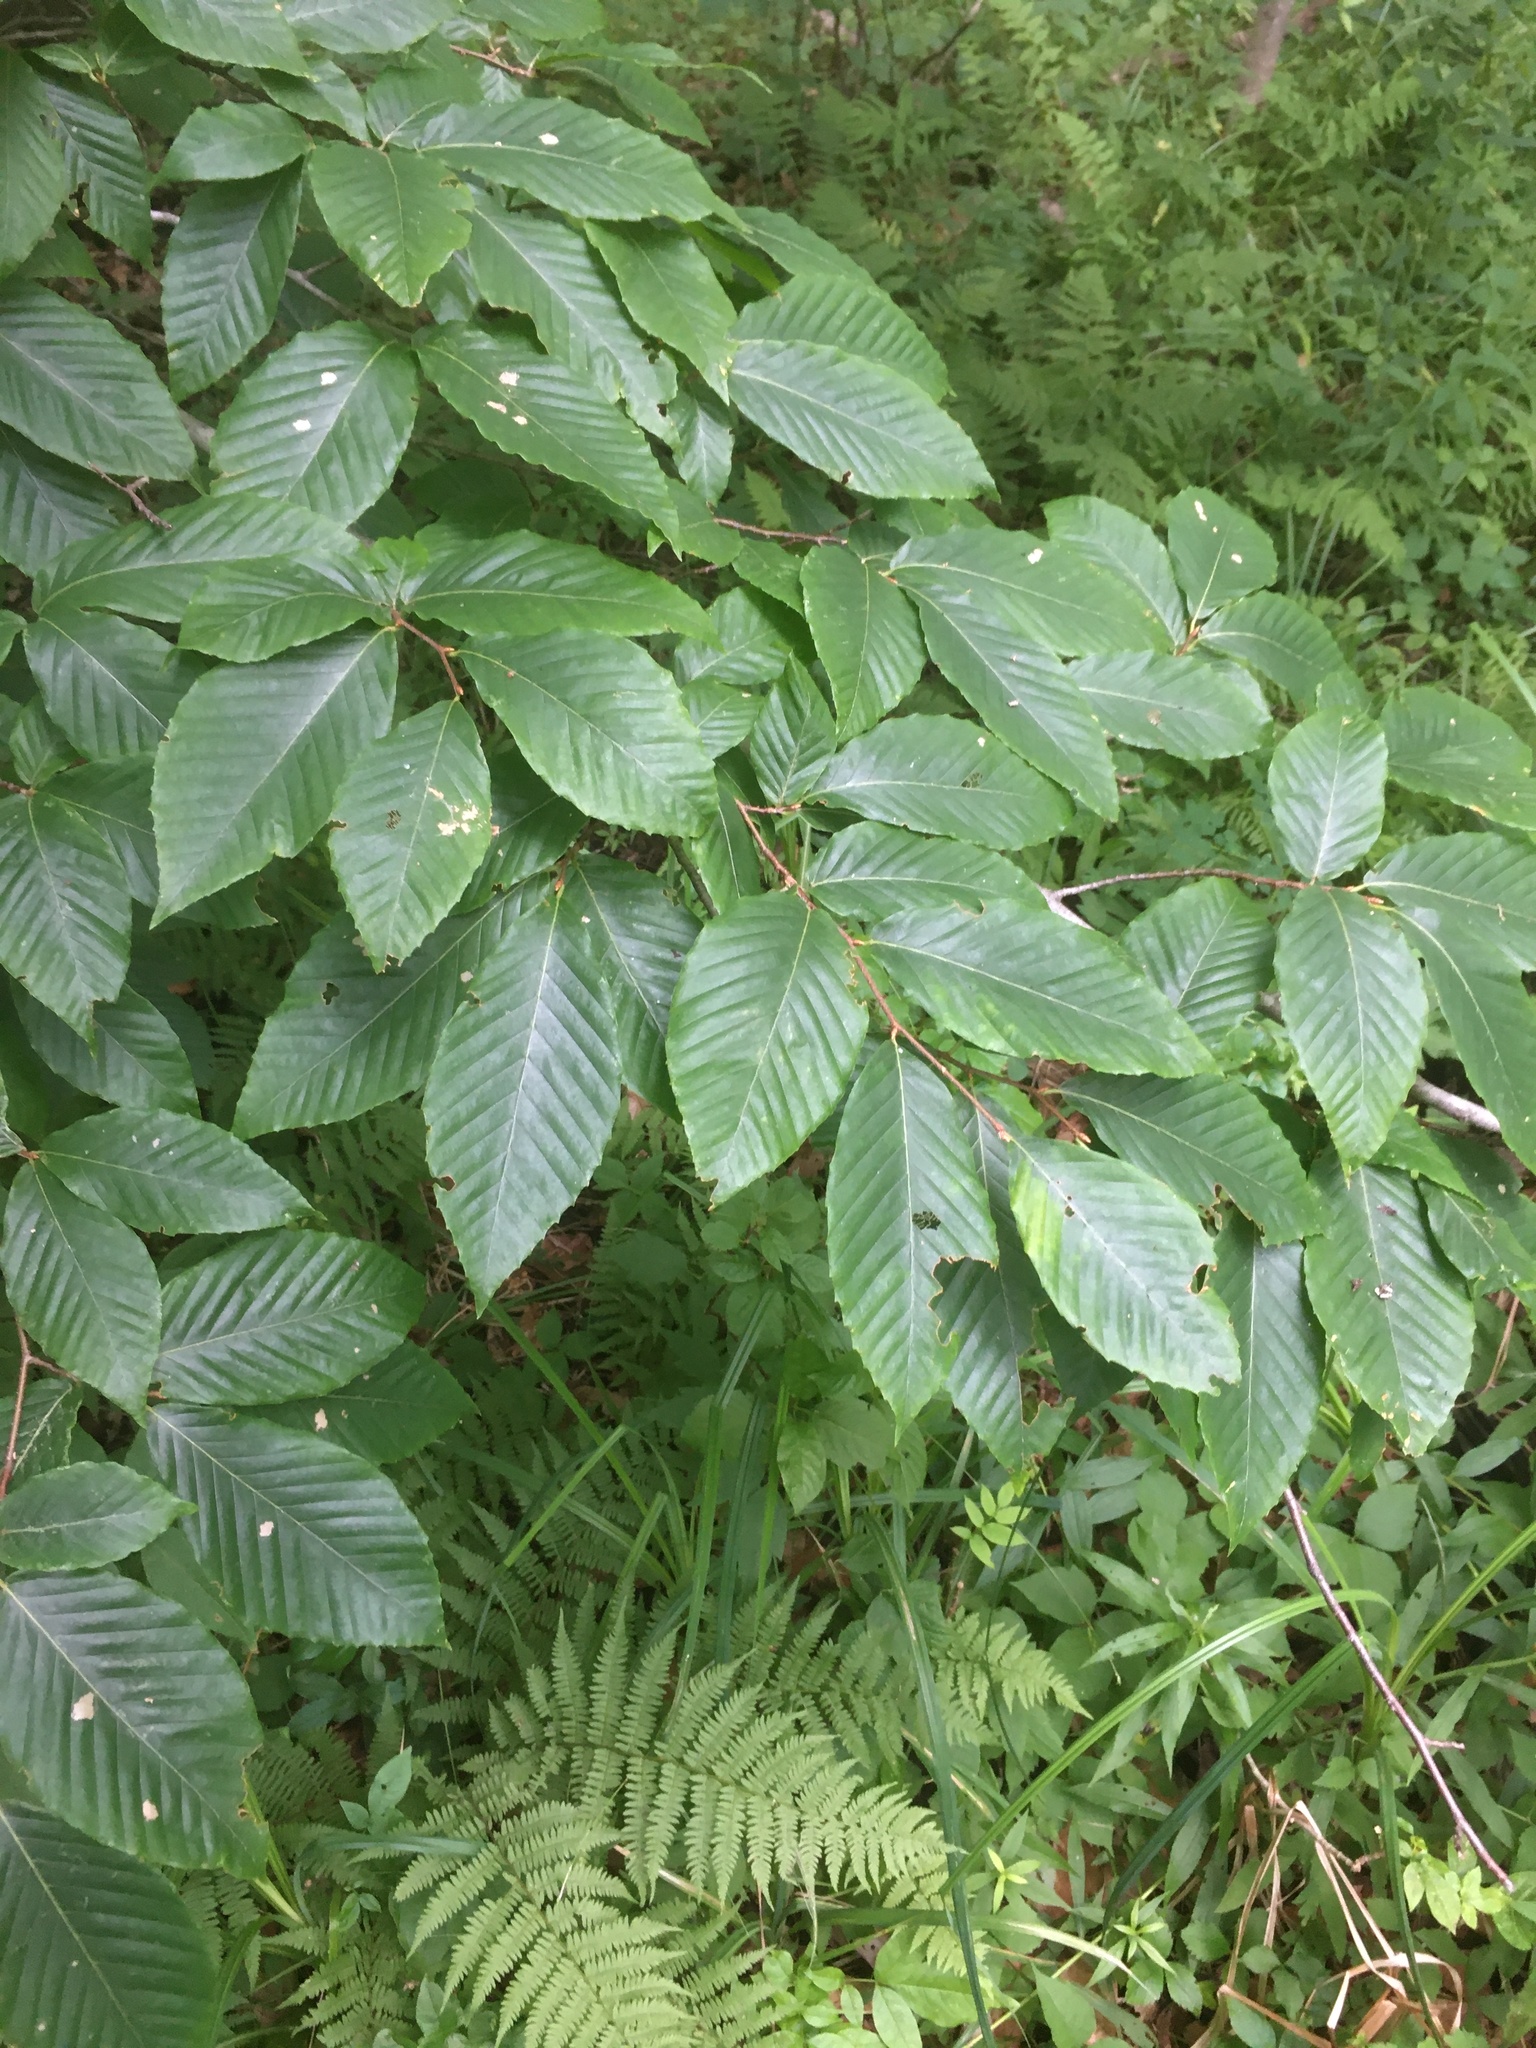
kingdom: Plantae
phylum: Tracheophyta
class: Magnoliopsida
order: Fagales
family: Fagaceae
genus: Fagus
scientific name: Fagus grandifolia
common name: American beech
